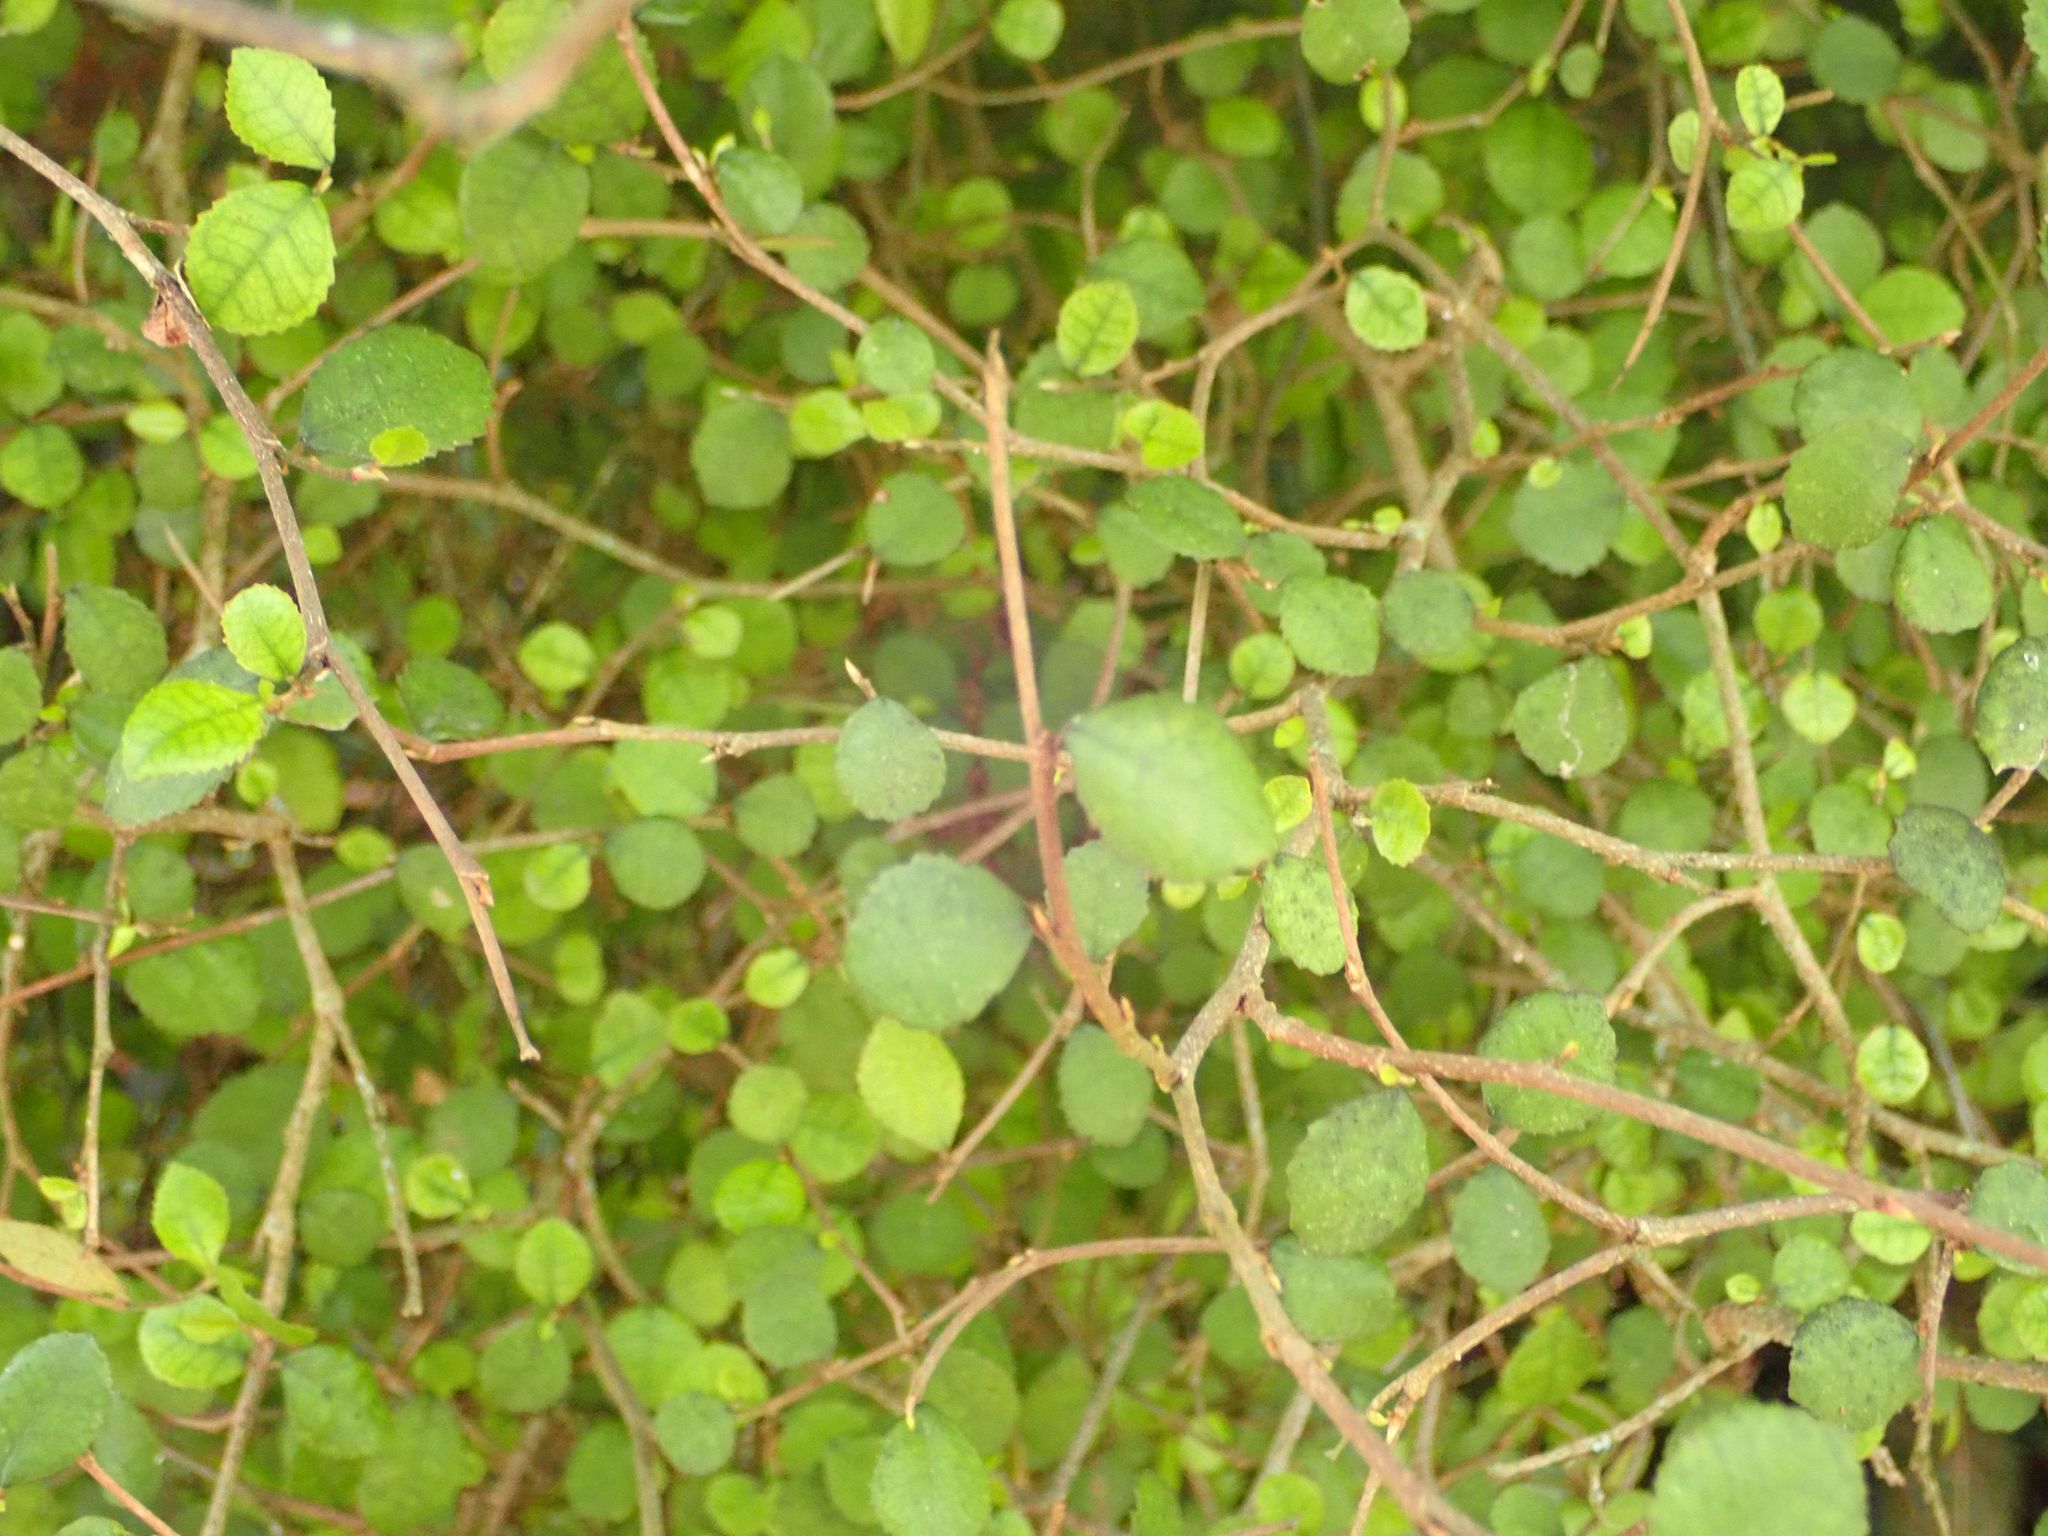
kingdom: Plantae
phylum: Tracheophyta
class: Magnoliopsida
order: Rosales
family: Moraceae
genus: Paratrophis
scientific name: Paratrophis microphylla
